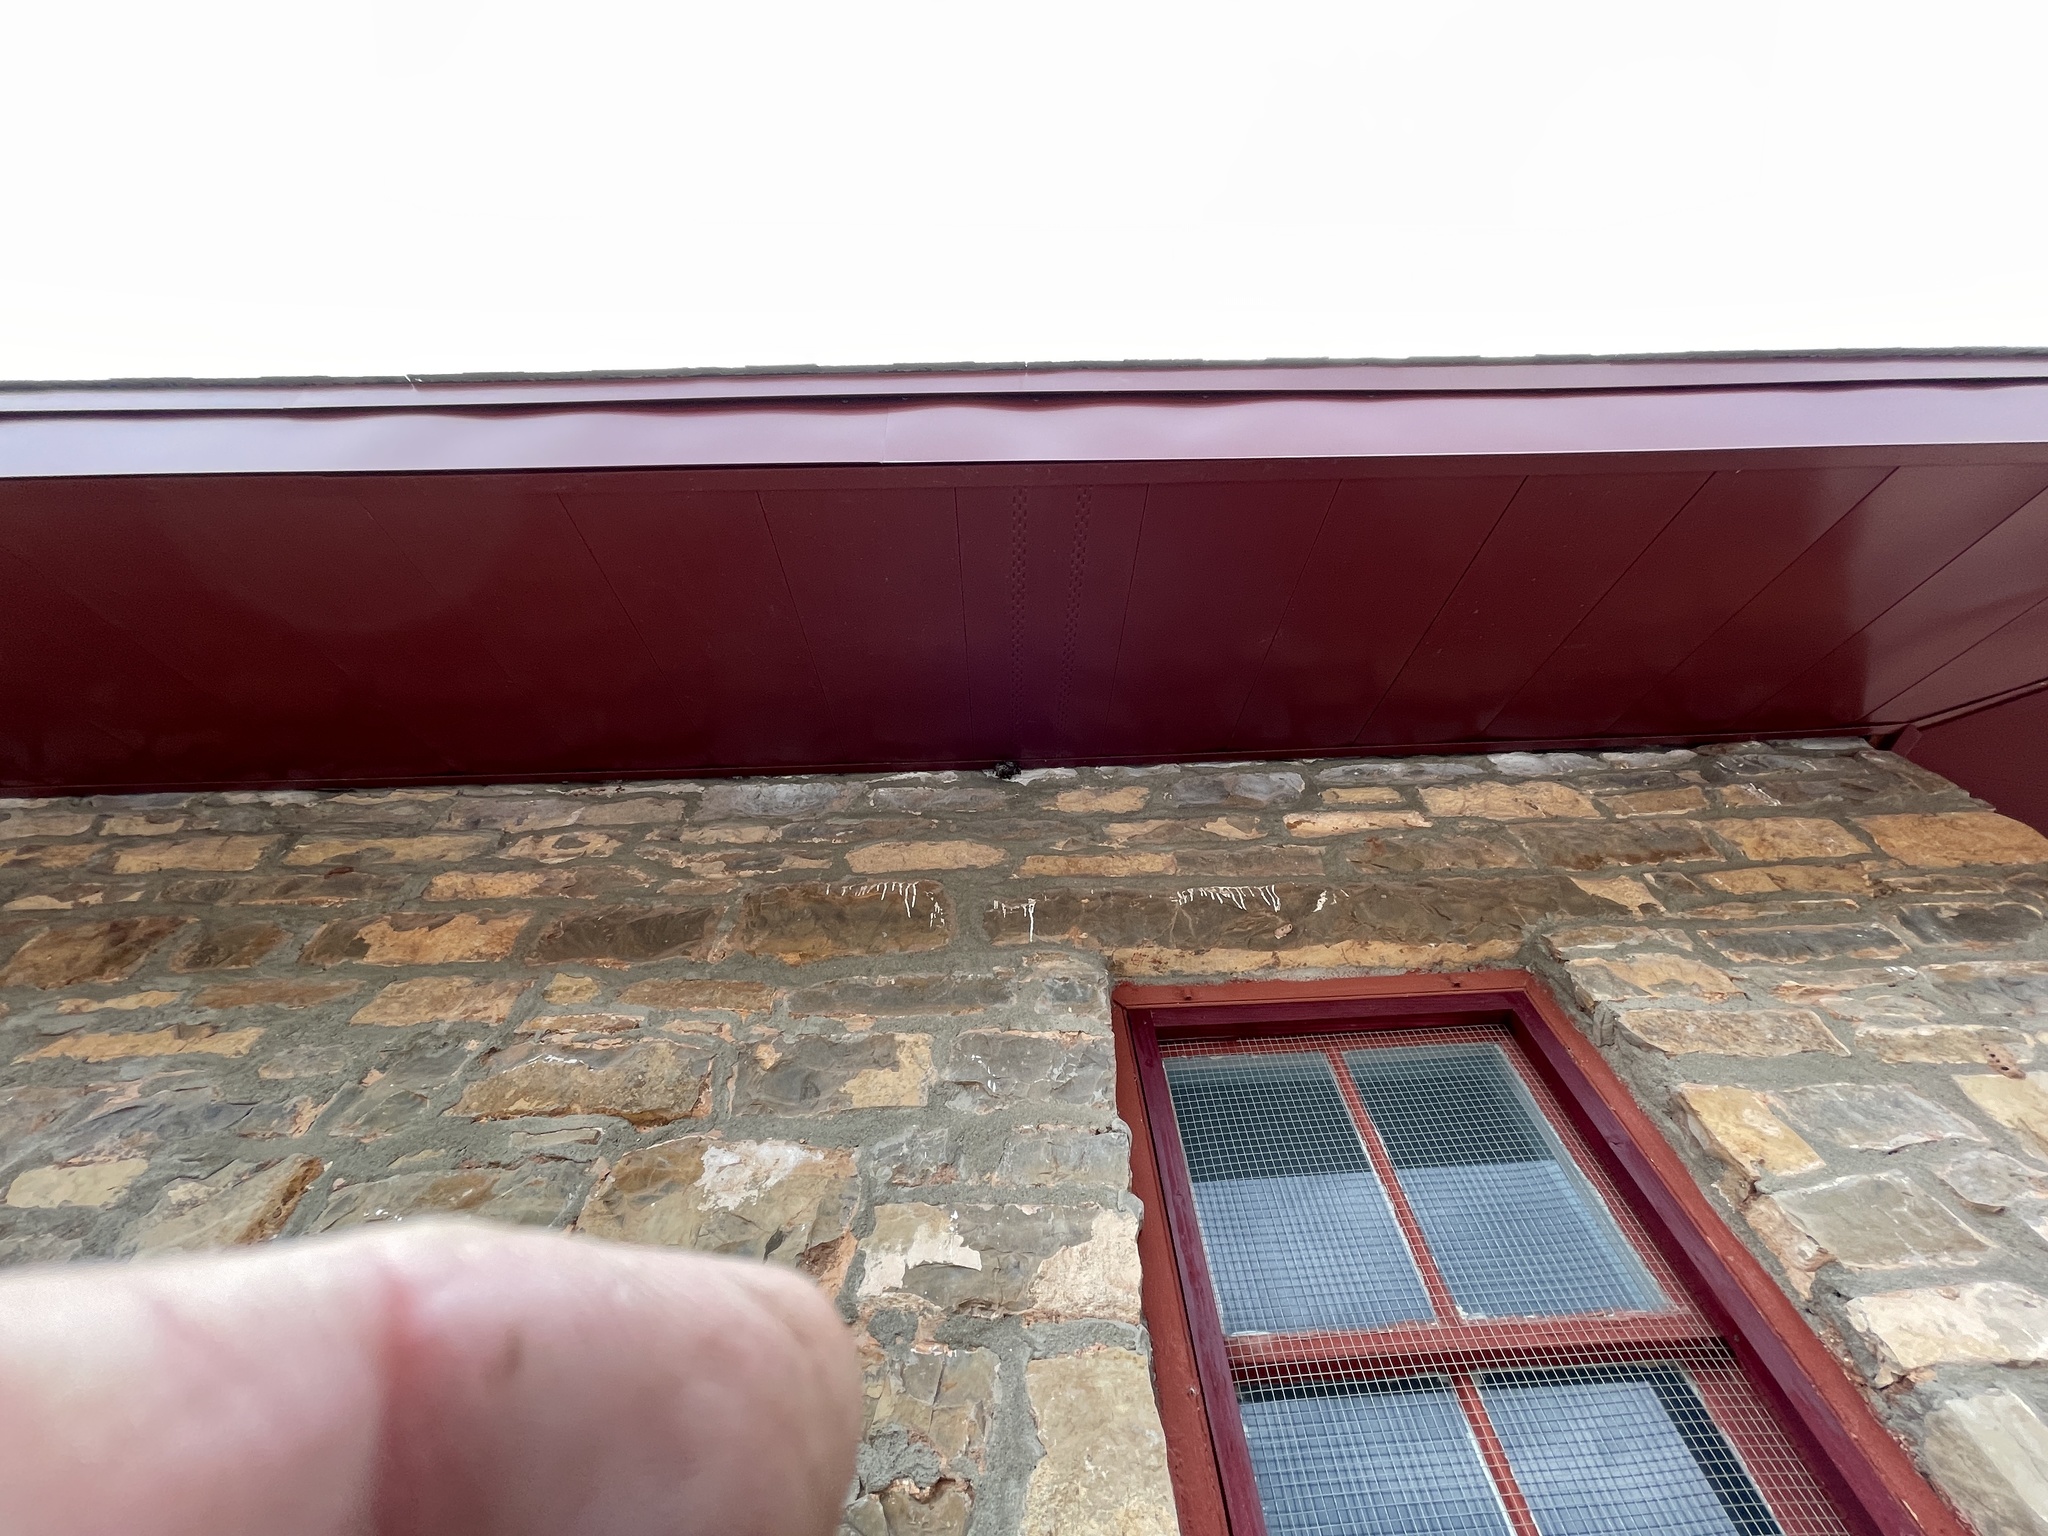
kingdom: Animalia
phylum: Arthropoda
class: Insecta
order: Hymenoptera
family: Vespidae
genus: Mischocyttarus
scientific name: Mischocyttarus navajo
